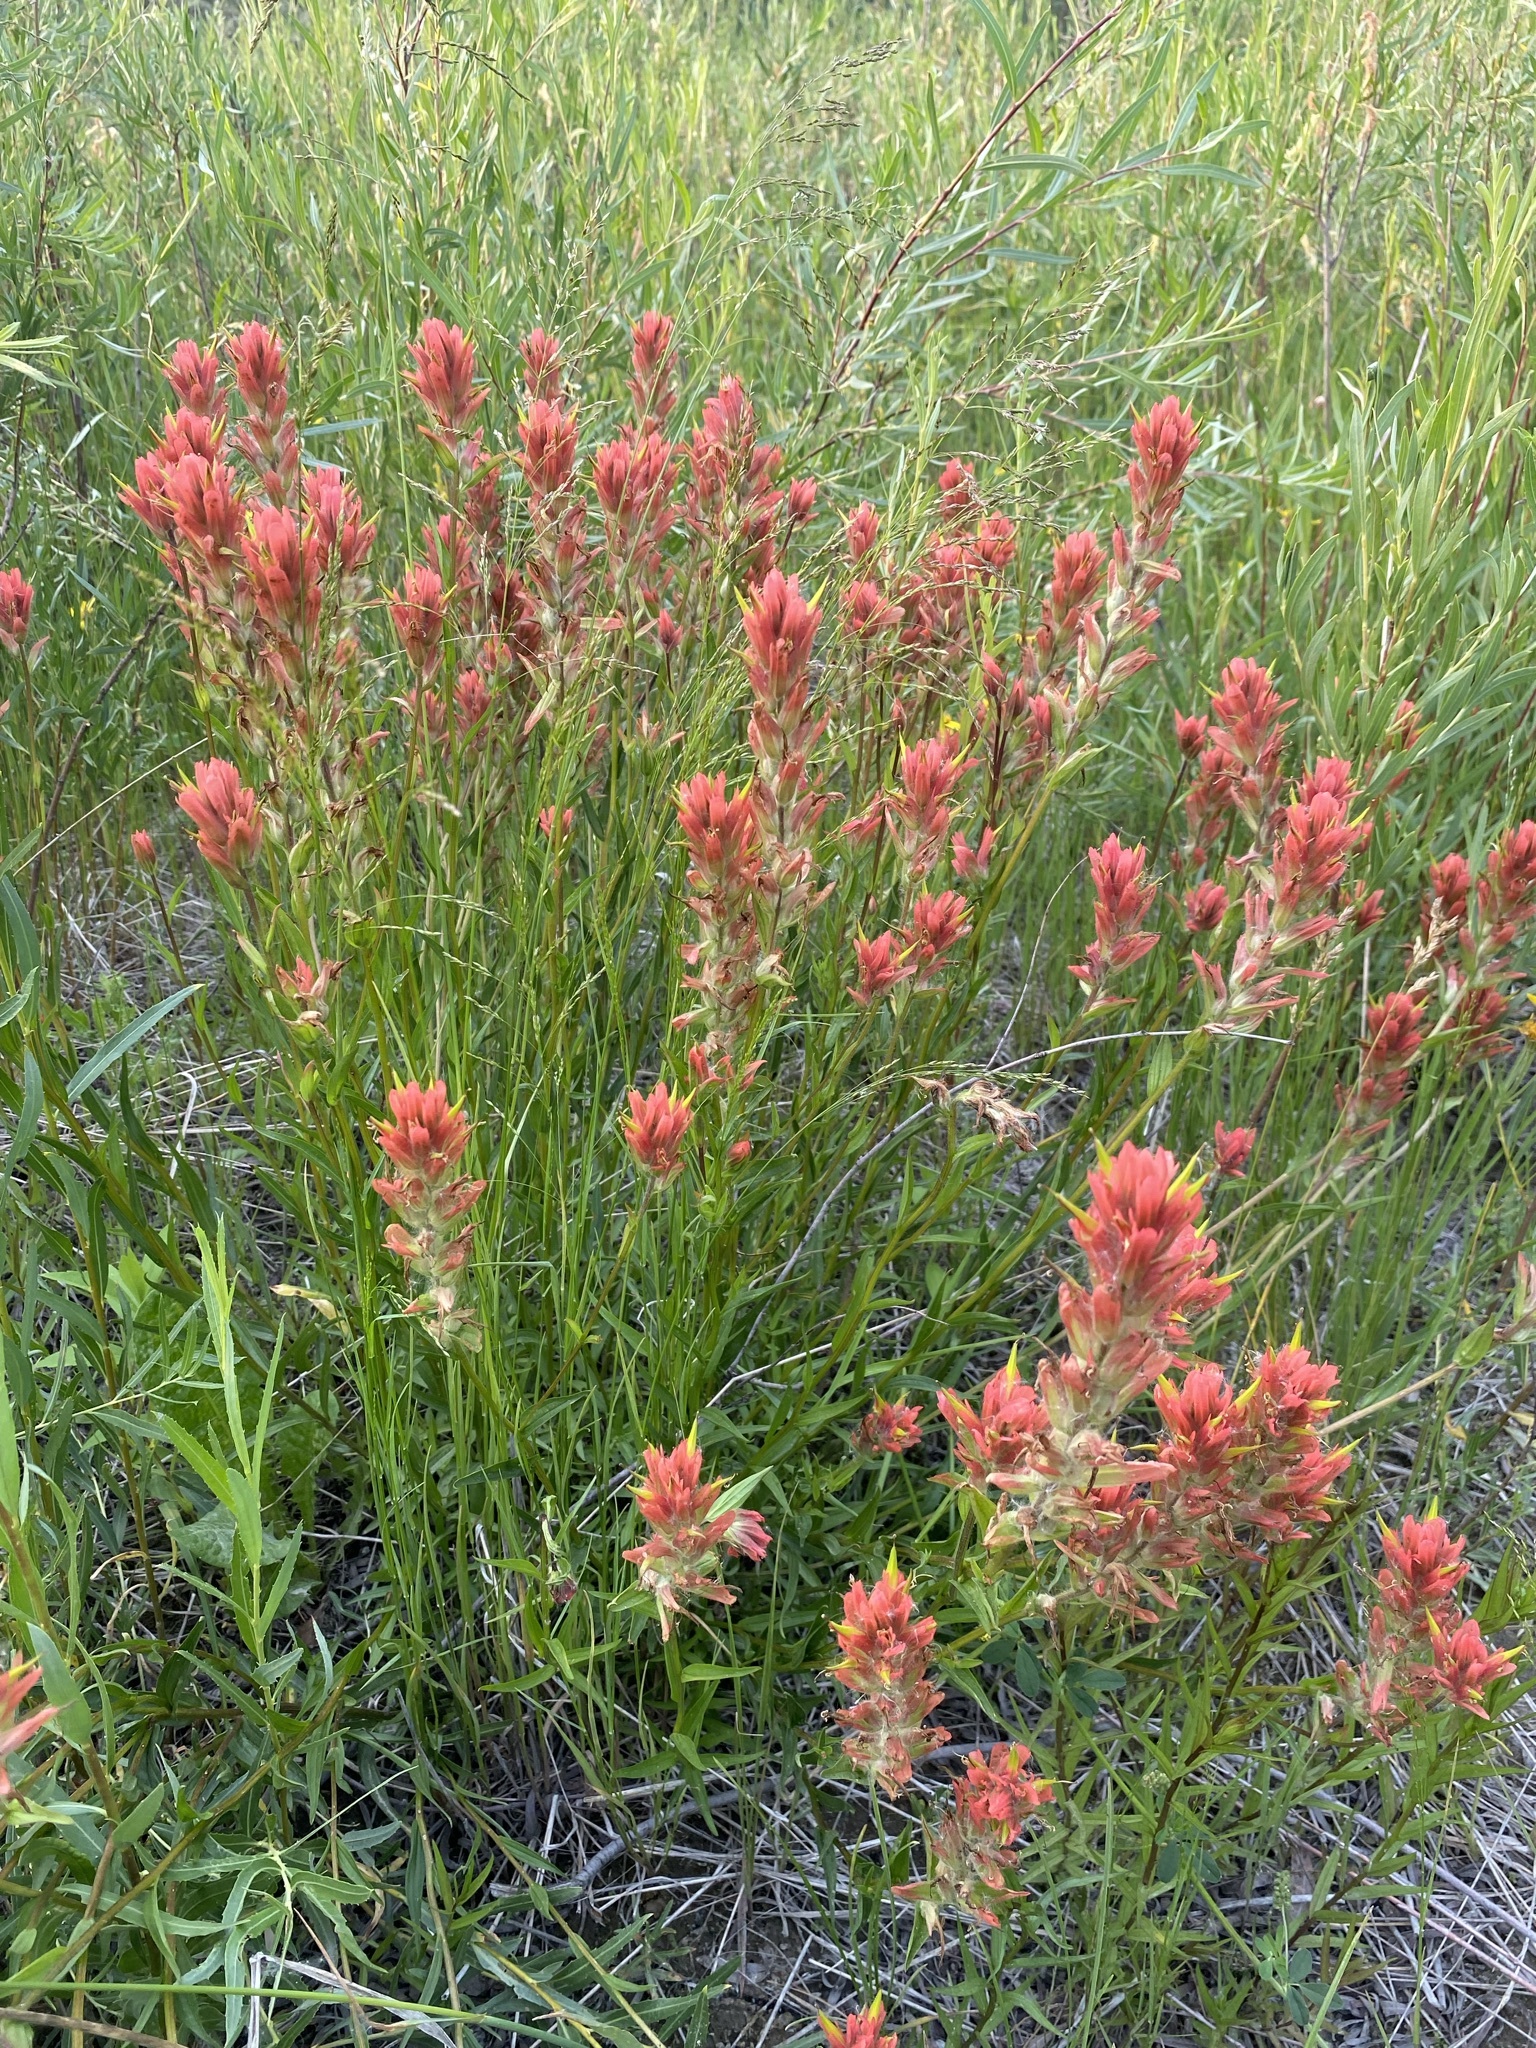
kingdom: Plantae
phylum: Tracheophyta
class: Magnoliopsida
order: Lamiales
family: Orobanchaceae
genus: Castilleja
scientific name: Castilleja miniata
